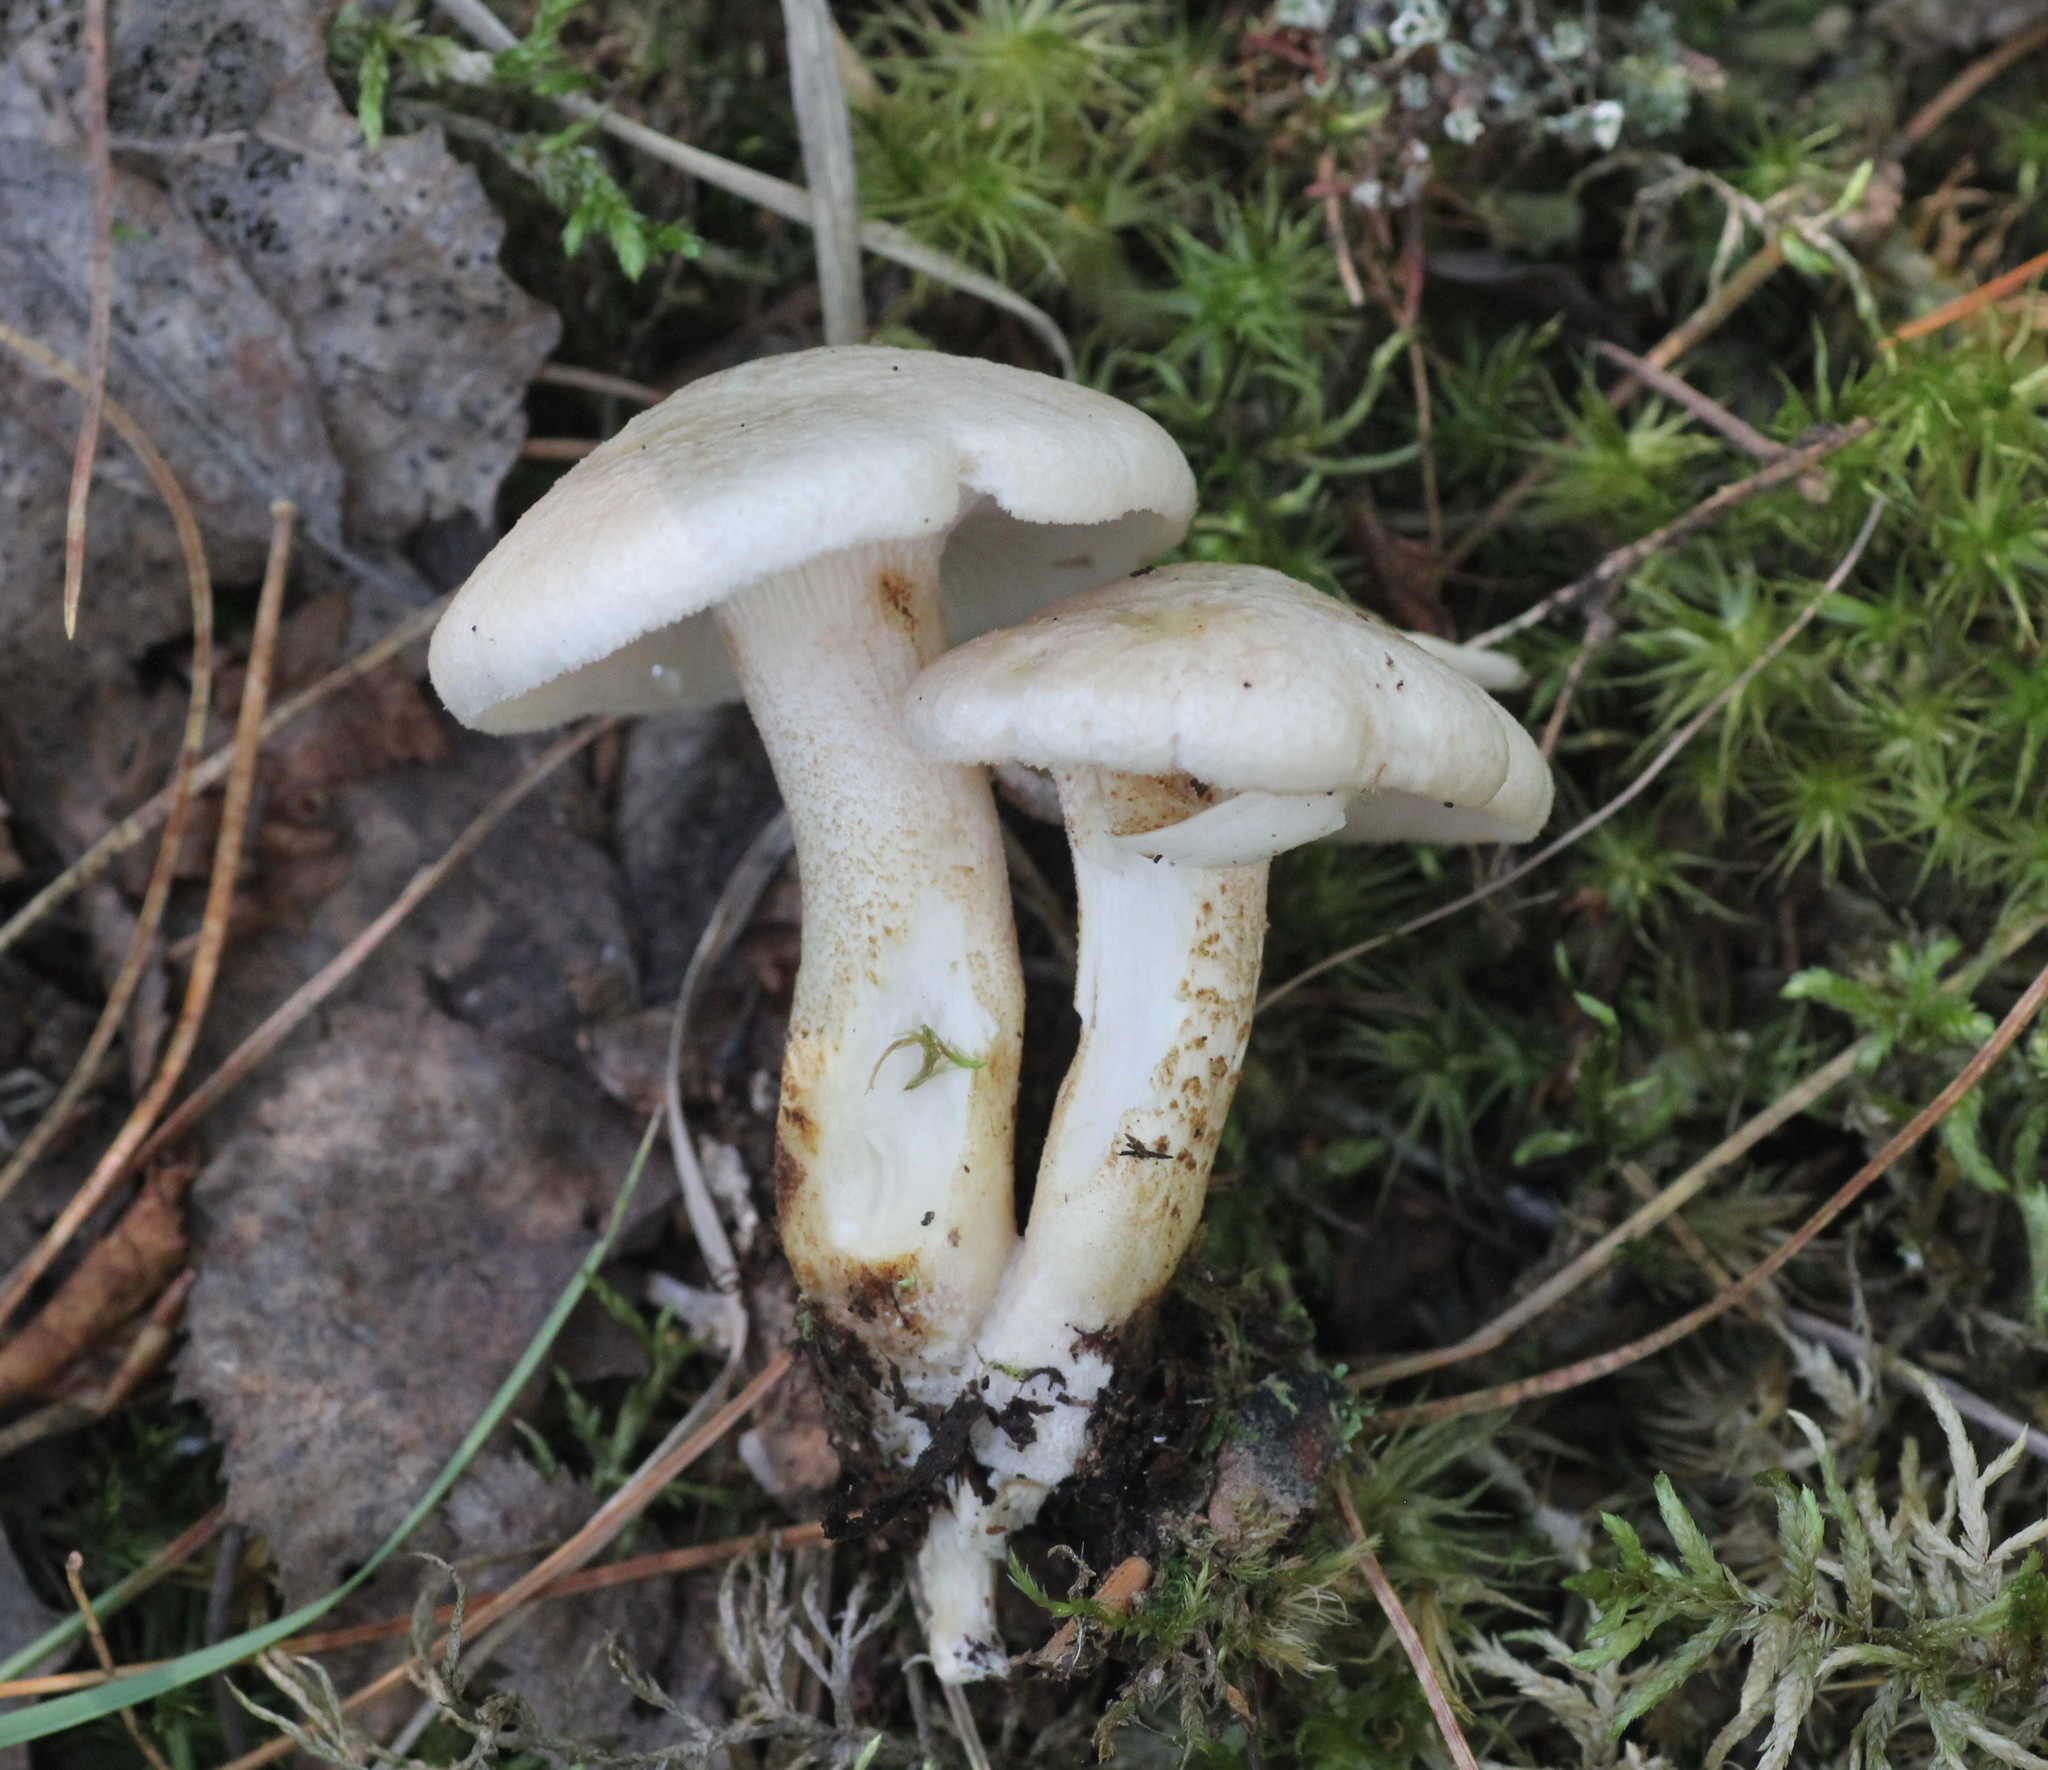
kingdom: Fungi
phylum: Basidiomycota
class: Agaricomycetes
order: Gloeophyllales
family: Gloeophyllaceae
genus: Neolentinus
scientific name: Neolentinus lepideus
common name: Scaly sawgill
